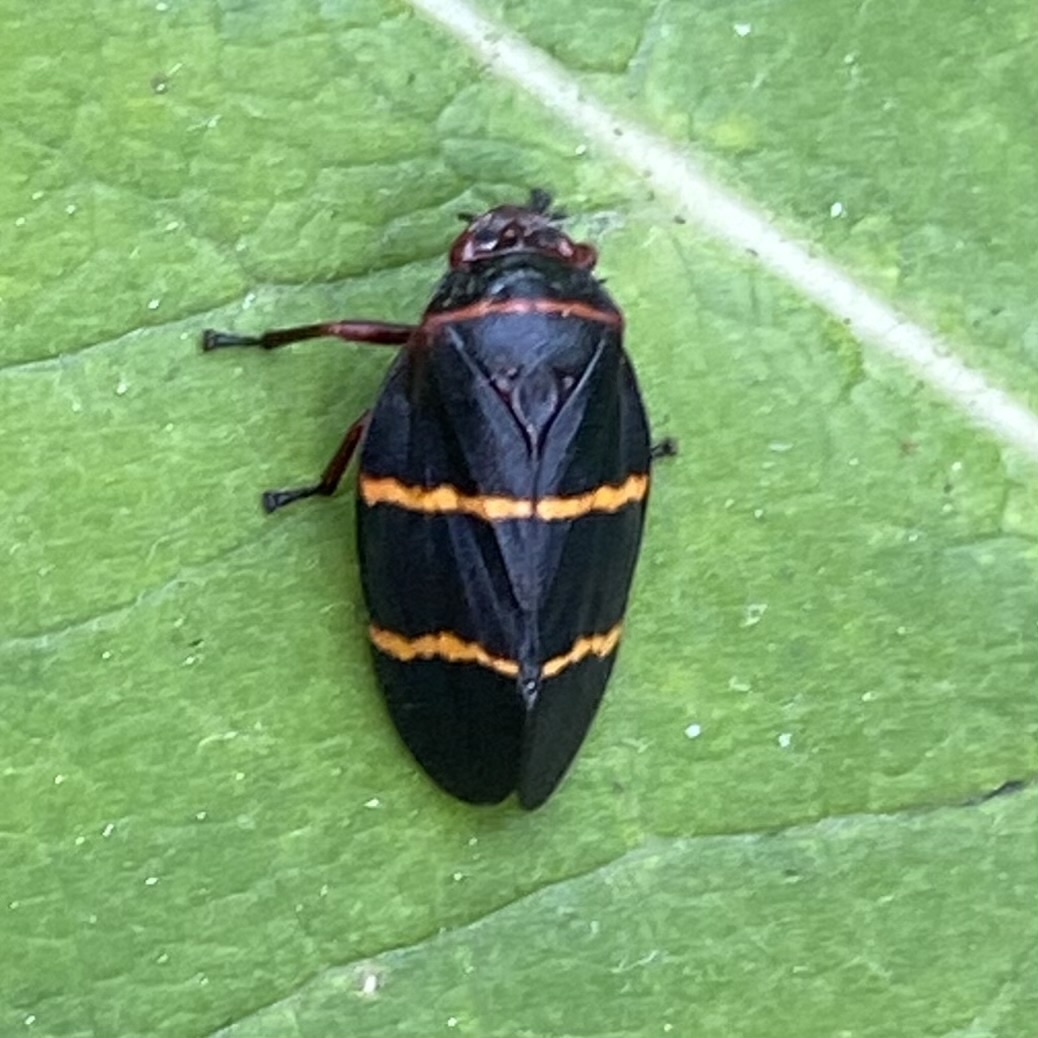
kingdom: Animalia
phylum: Arthropoda
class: Insecta
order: Hemiptera
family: Cercopidae
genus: Prosapia
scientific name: Prosapia bicincta
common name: Twolined spittlebug
